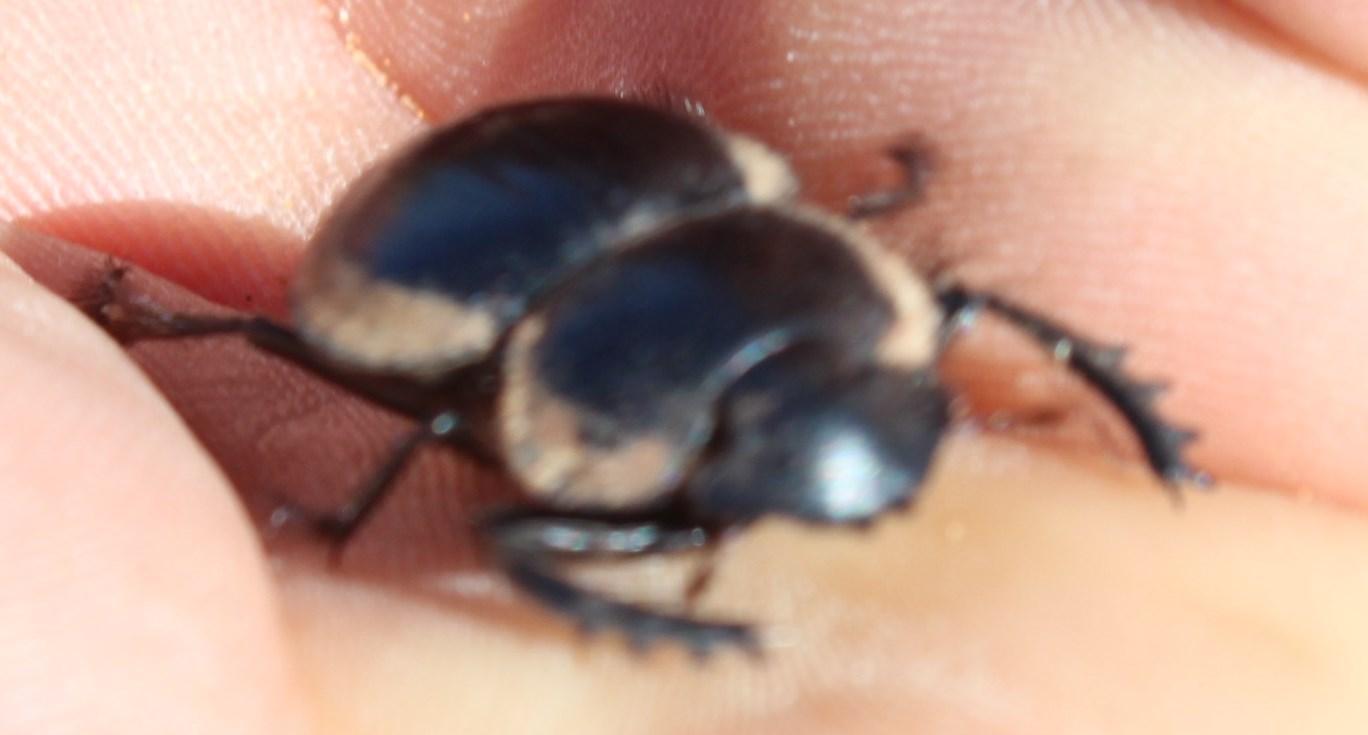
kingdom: Animalia
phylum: Arthropoda
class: Insecta
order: Coleoptera
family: Scarabaeidae
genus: Pachysoma
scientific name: Pachysoma striatum
